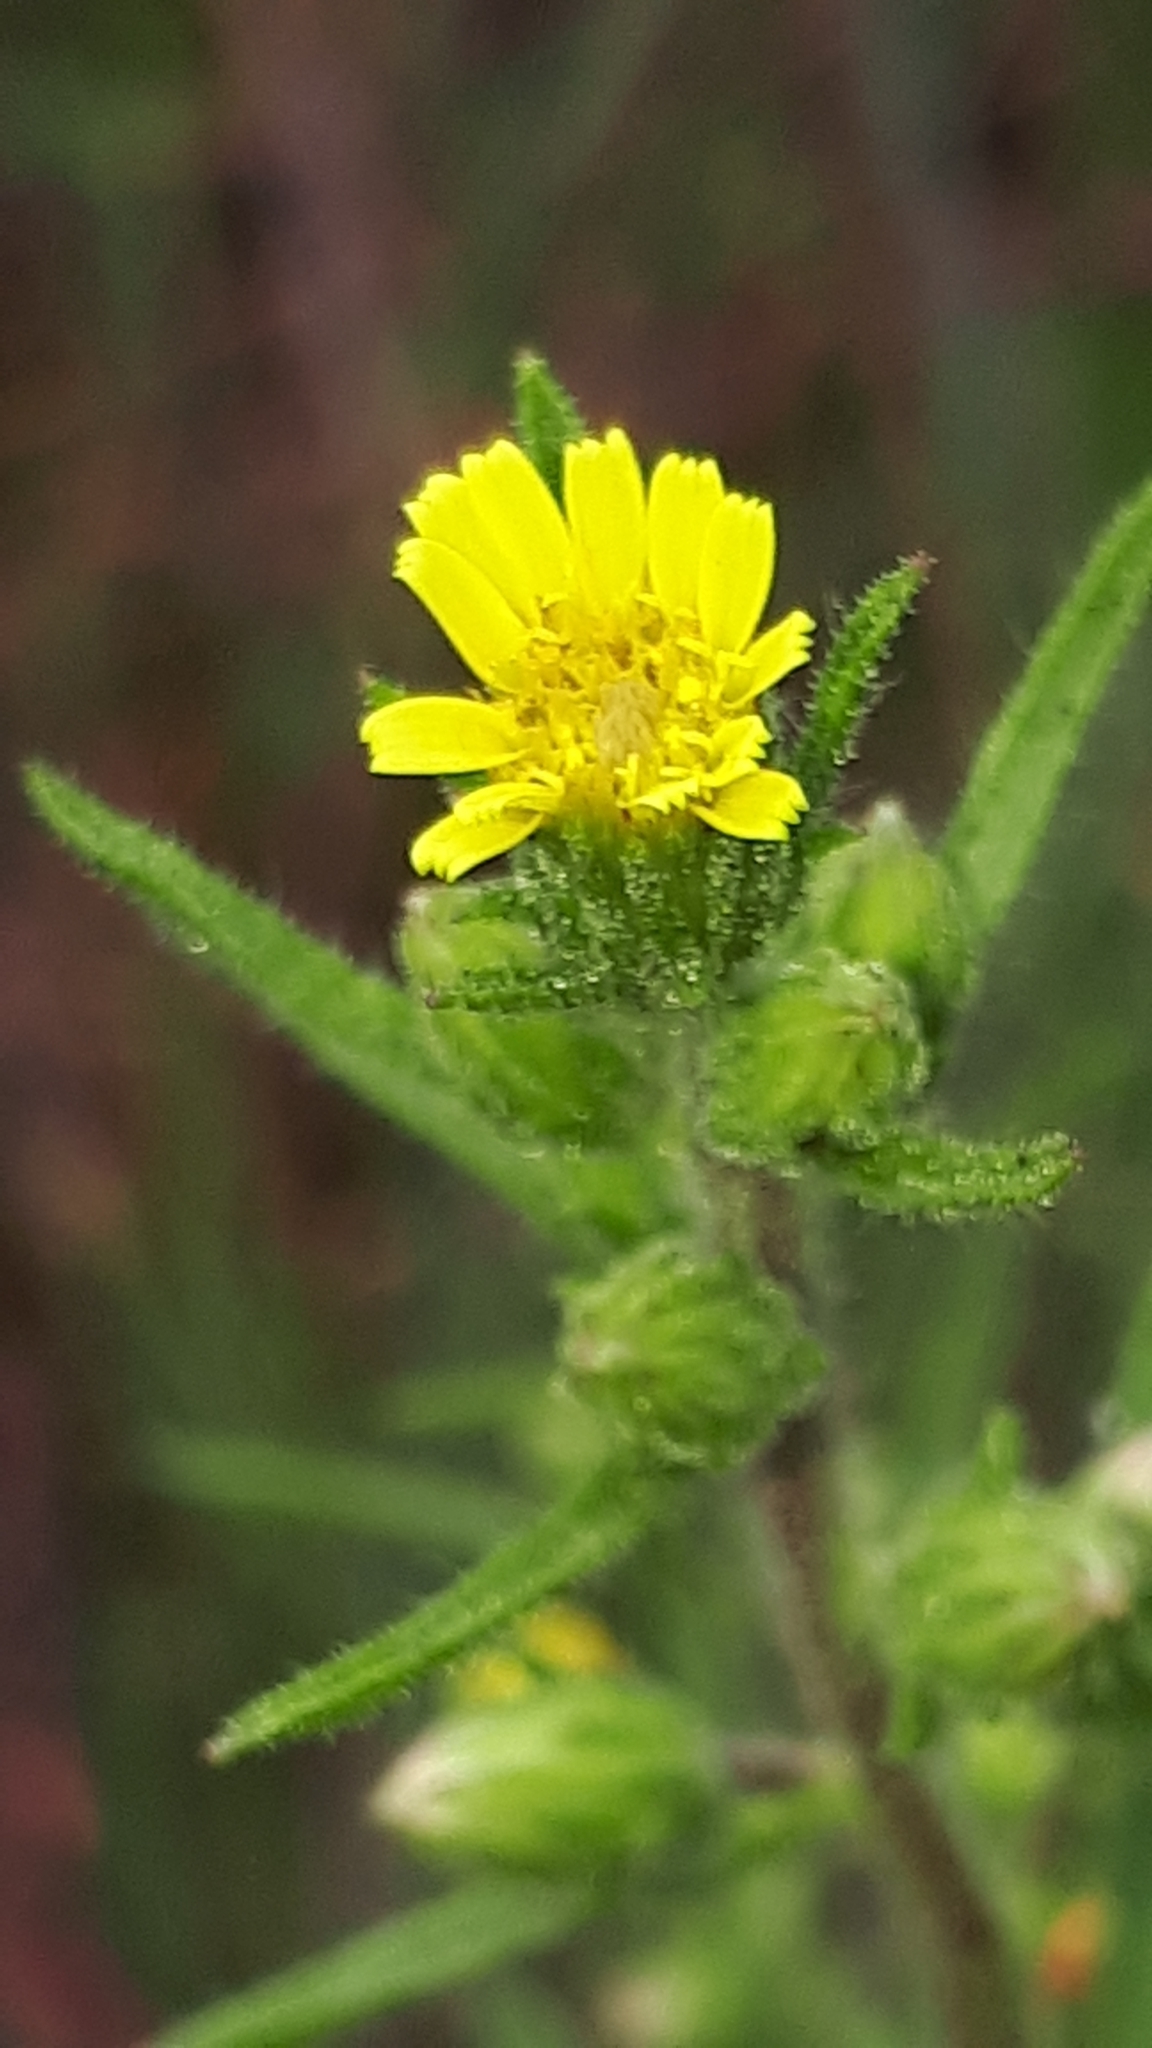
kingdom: Plantae
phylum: Tracheophyta
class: Magnoliopsida
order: Asterales
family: Asteraceae
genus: Dittrichia
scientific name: Dittrichia graveolens
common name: Stinking fleabane
